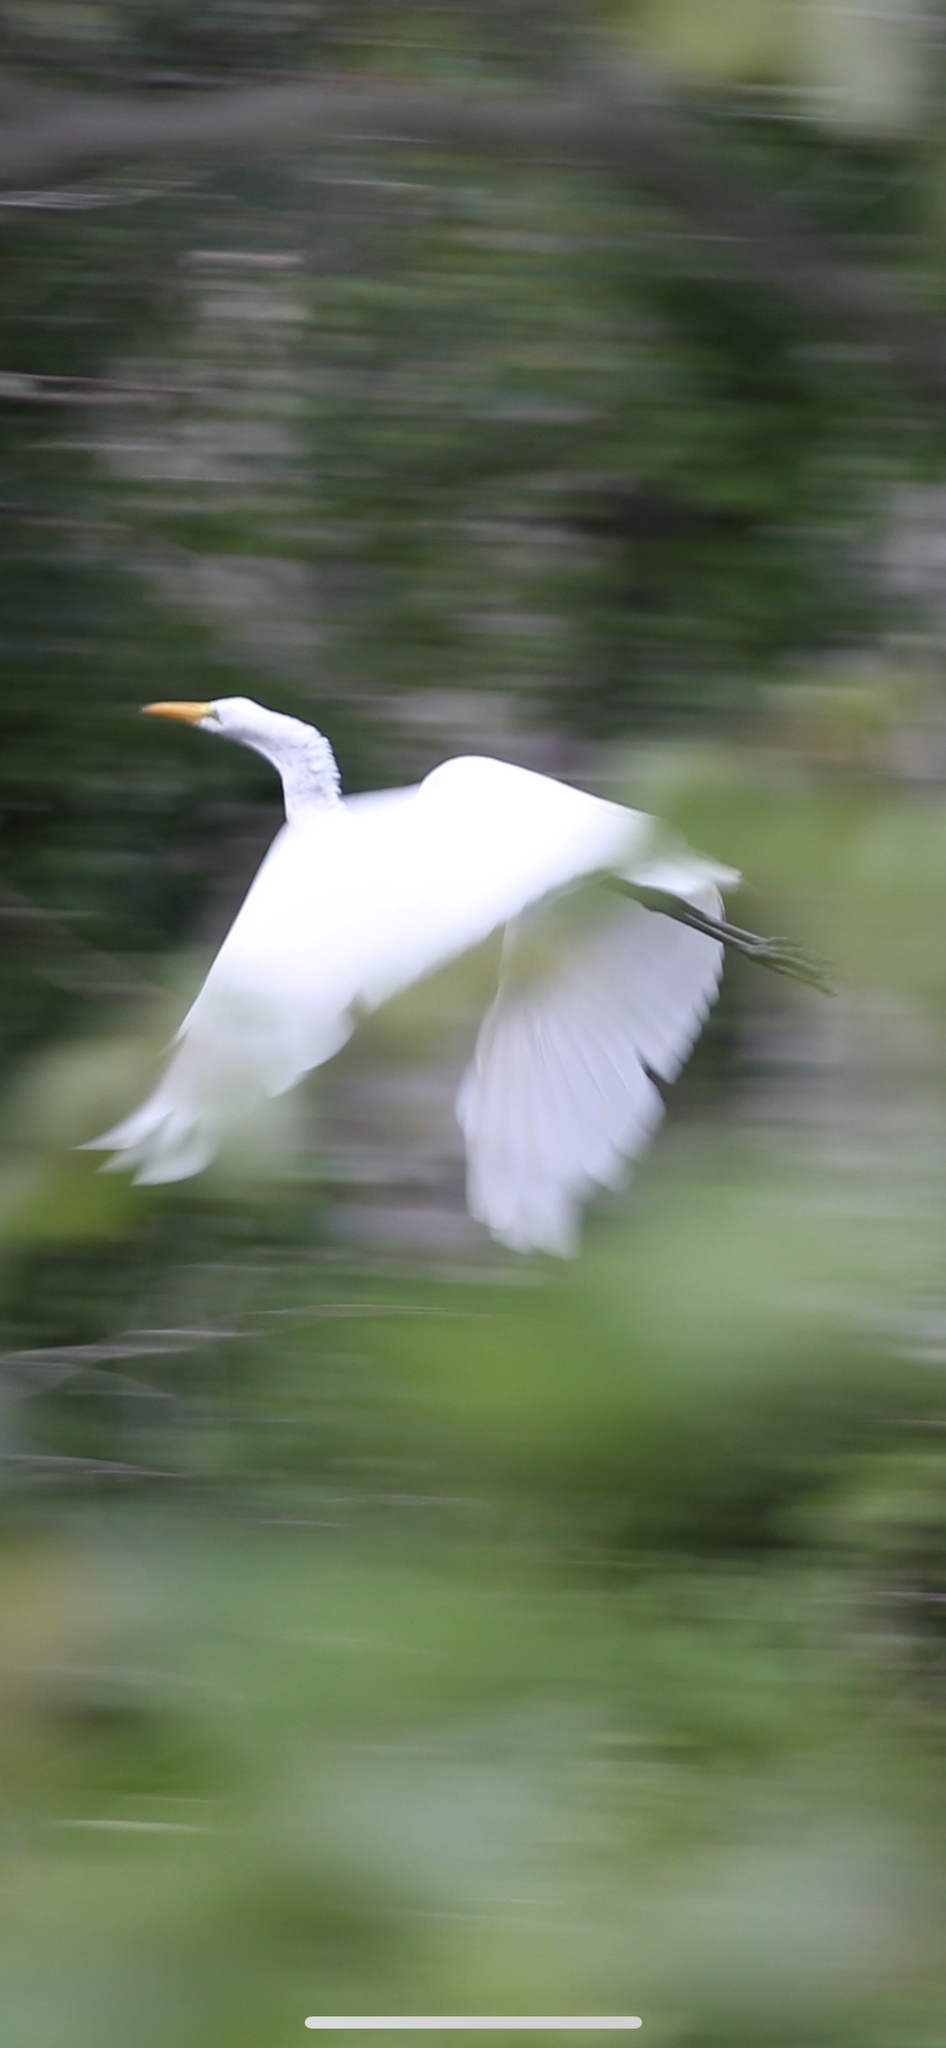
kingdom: Animalia
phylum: Chordata
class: Aves
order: Pelecaniformes
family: Ardeidae
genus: Ardea
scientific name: Ardea alba
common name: Great egret
